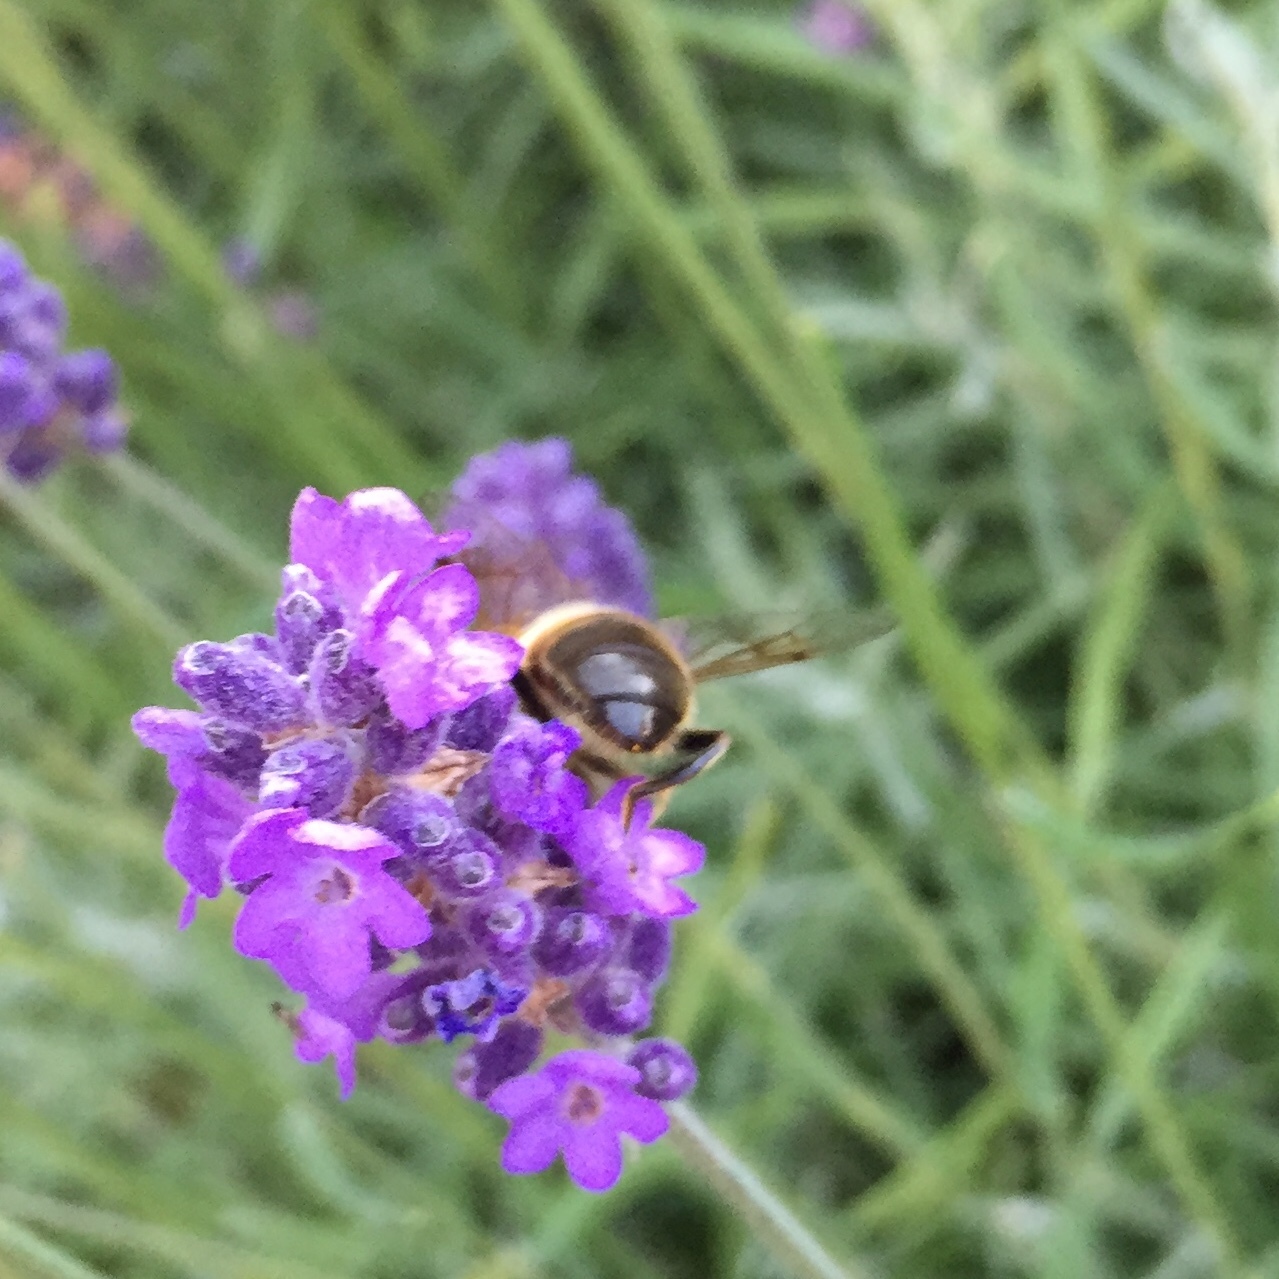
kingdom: Animalia
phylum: Arthropoda
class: Insecta
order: Diptera
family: Syrphidae
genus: Eristalis
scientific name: Eristalis tenax
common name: Drone fly
